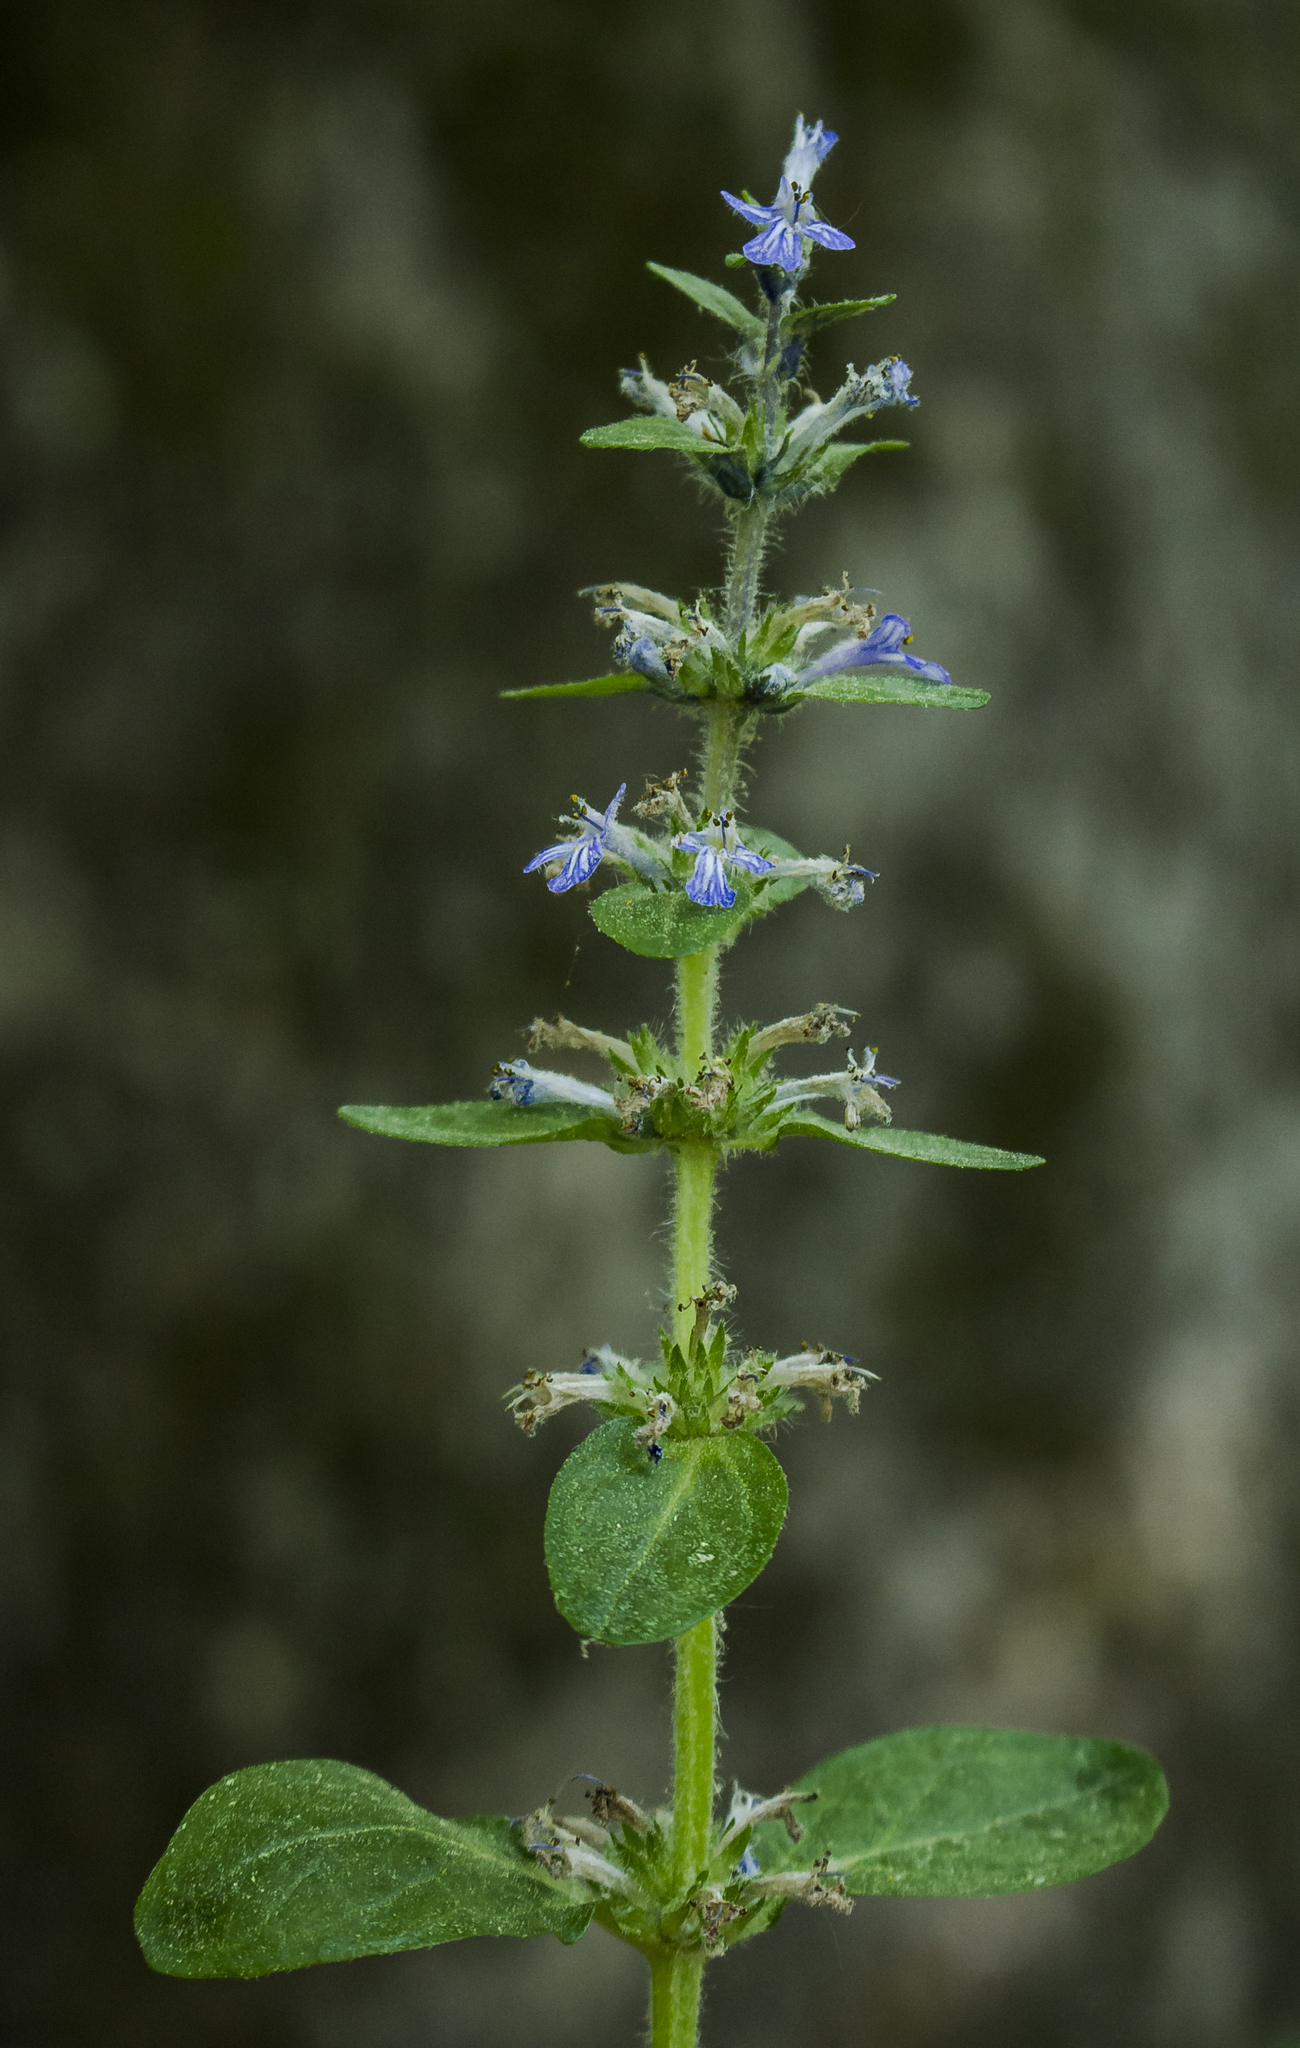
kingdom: Plantae
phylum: Tracheophyta
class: Magnoliopsida
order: Lamiales
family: Lamiaceae
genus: Ajuga
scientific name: Ajuga reptans
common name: Bugle
